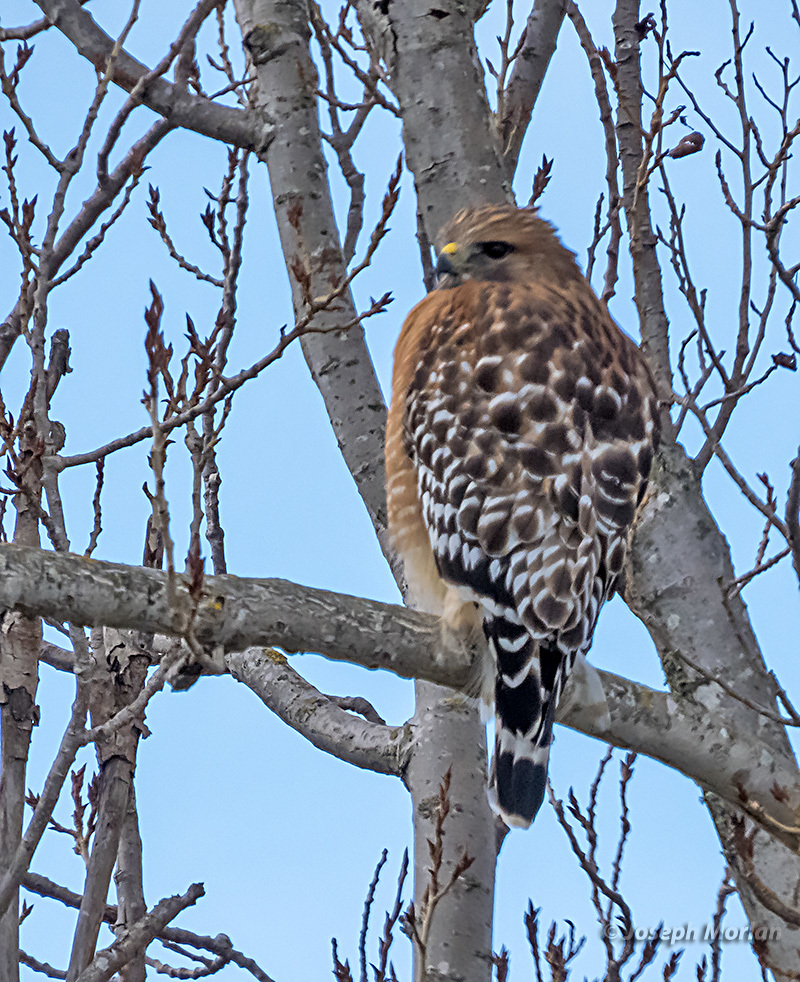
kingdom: Animalia
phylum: Chordata
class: Aves
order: Accipitriformes
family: Accipitridae
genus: Buteo
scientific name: Buteo lineatus
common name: Red-shouldered hawk
